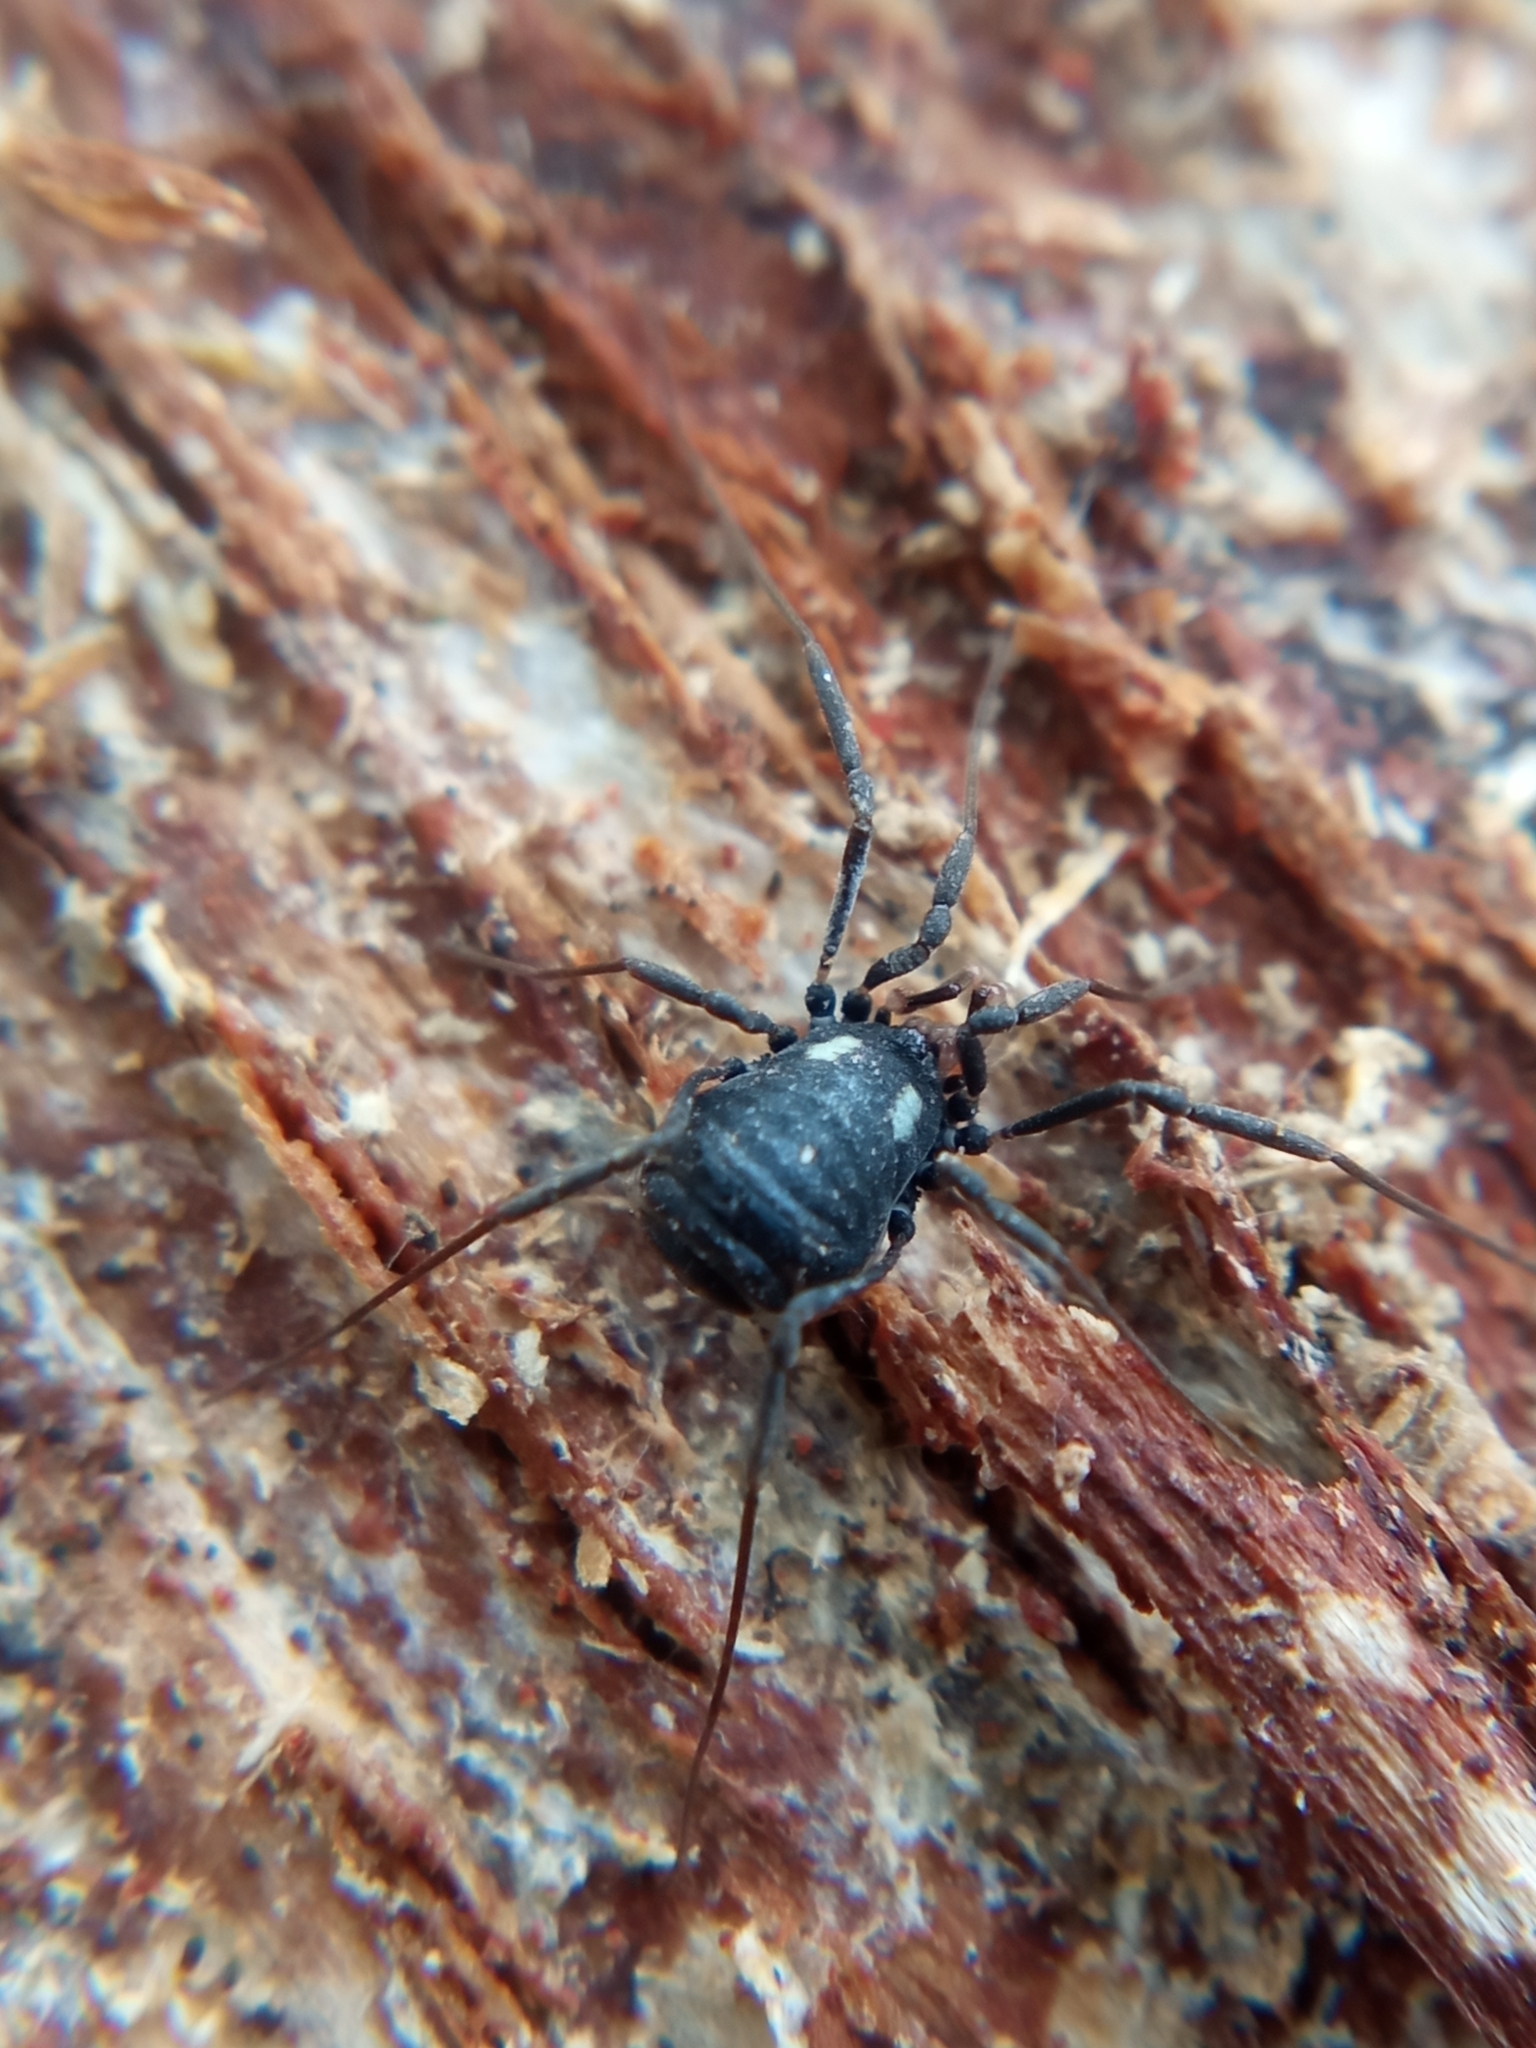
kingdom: Animalia
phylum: Arthropoda
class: Arachnida
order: Opiliones
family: Nemastomatidae
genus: Nemastoma
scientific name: Nemastoma lugubre
